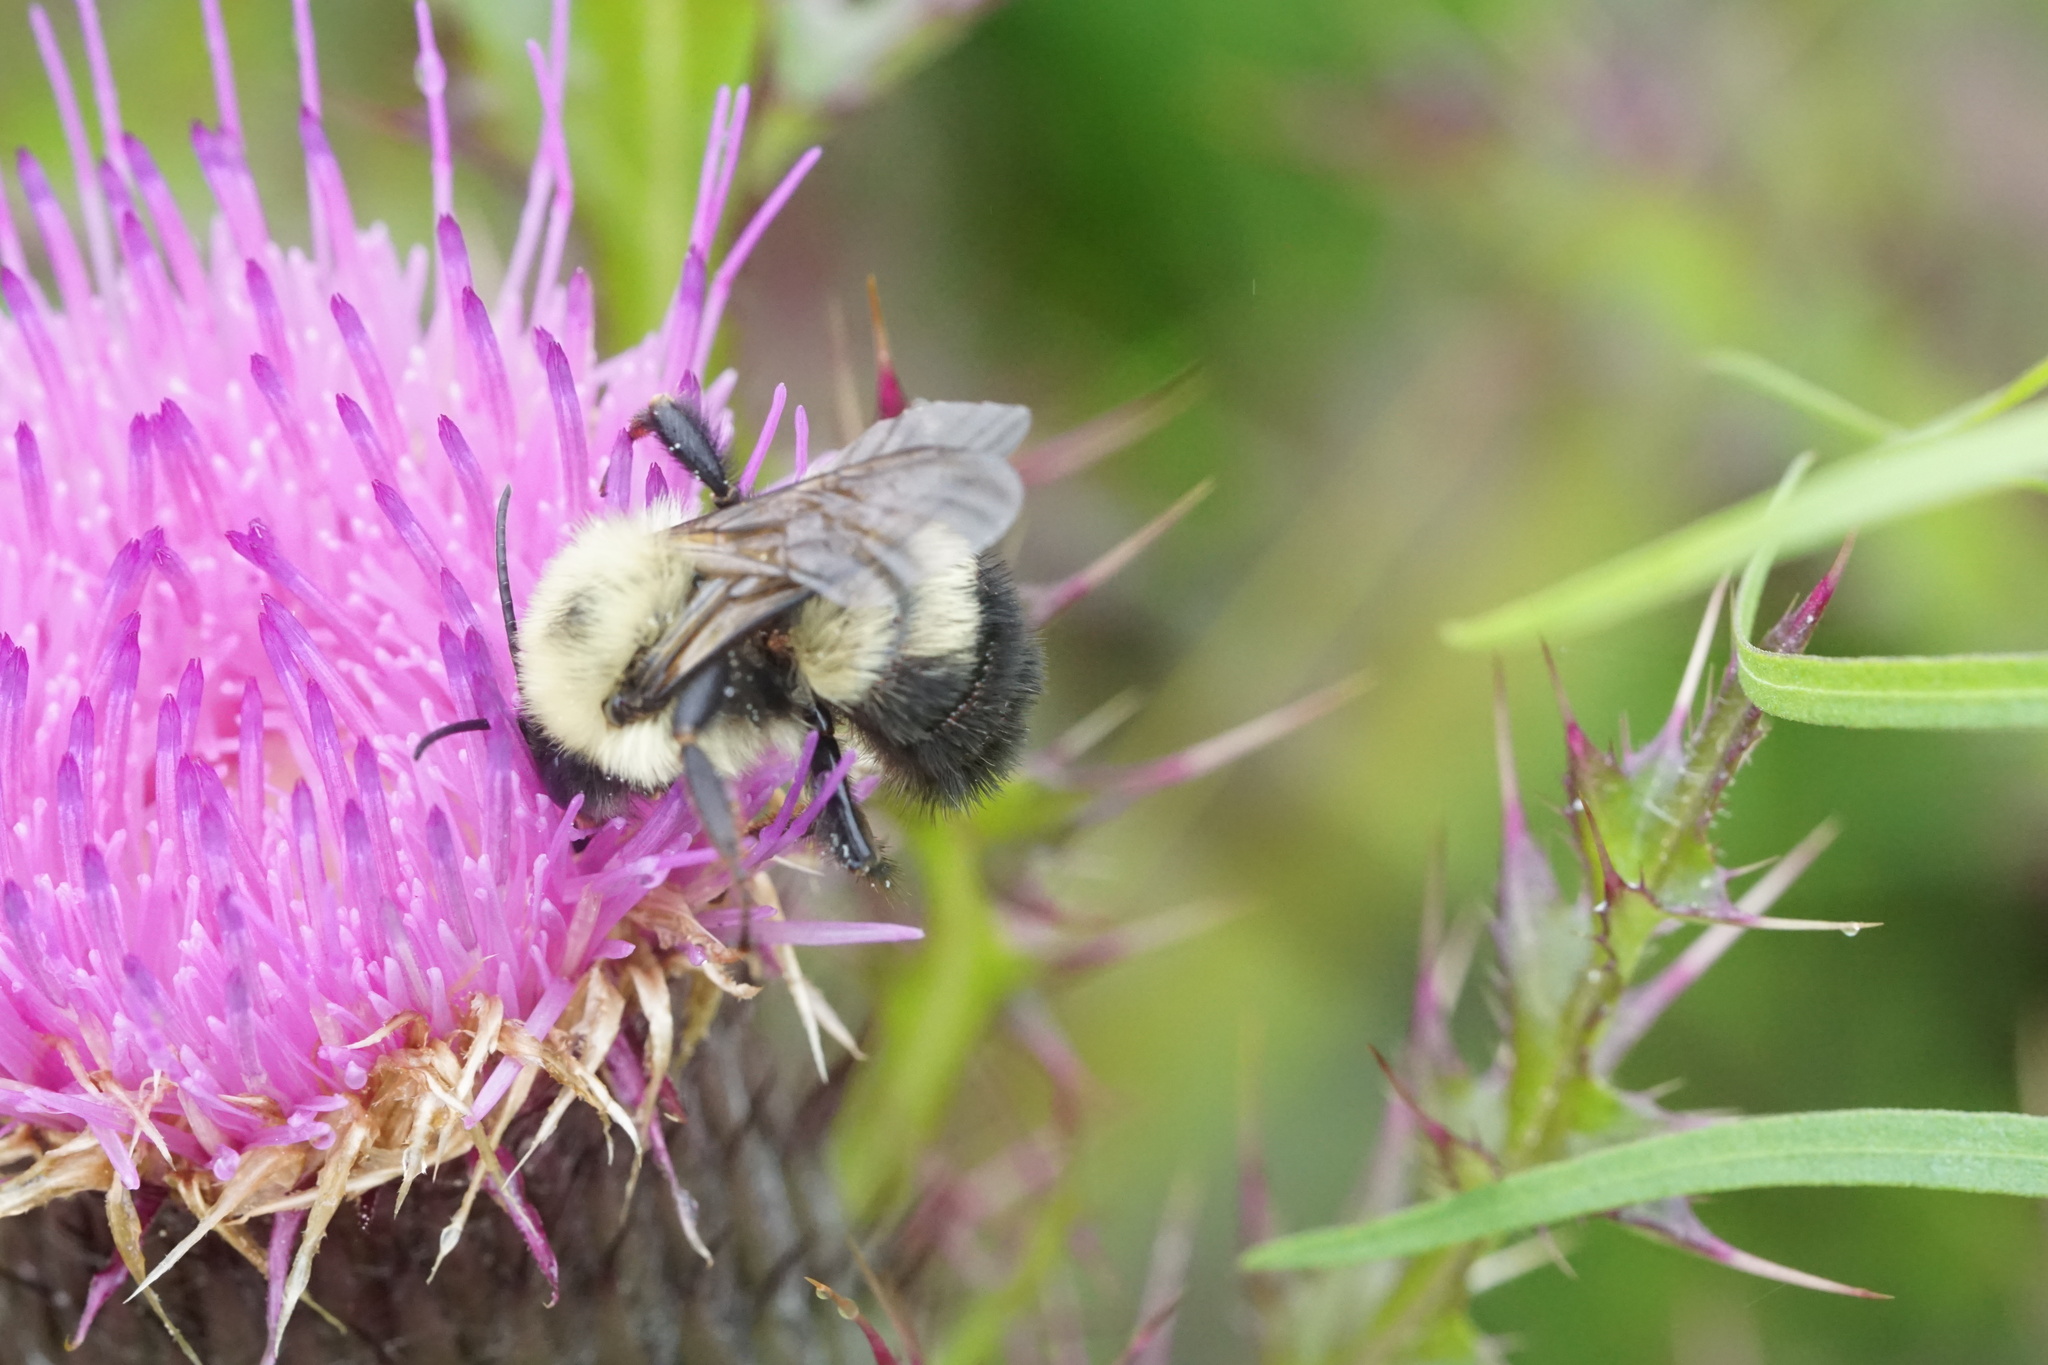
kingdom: Animalia
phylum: Arthropoda
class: Insecta
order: Hymenoptera
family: Apidae
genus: Bombus
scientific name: Bombus bimaculatus
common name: Two-spotted bumble bee
